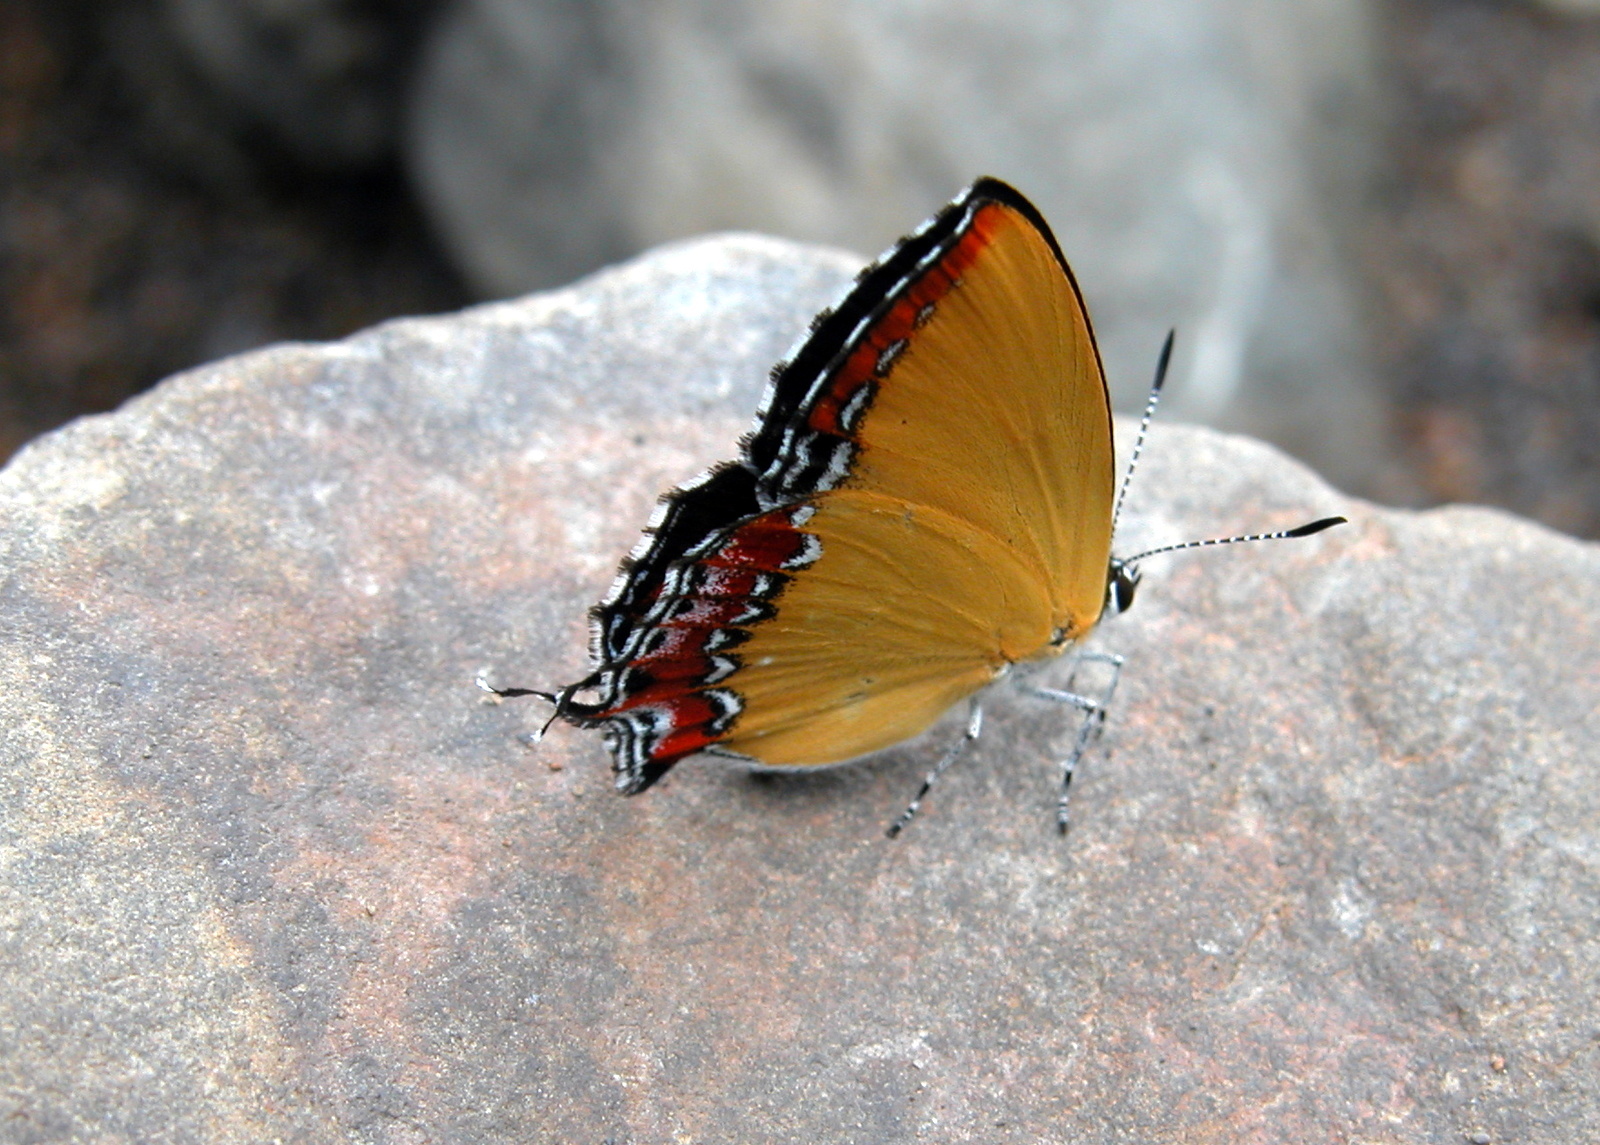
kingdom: Animalia
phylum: Arthropoda
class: Insecta
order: Lepidoptera
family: Lycaenidae
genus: Heliophorus
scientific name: Heliophorus epicles
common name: Purple sapphire
